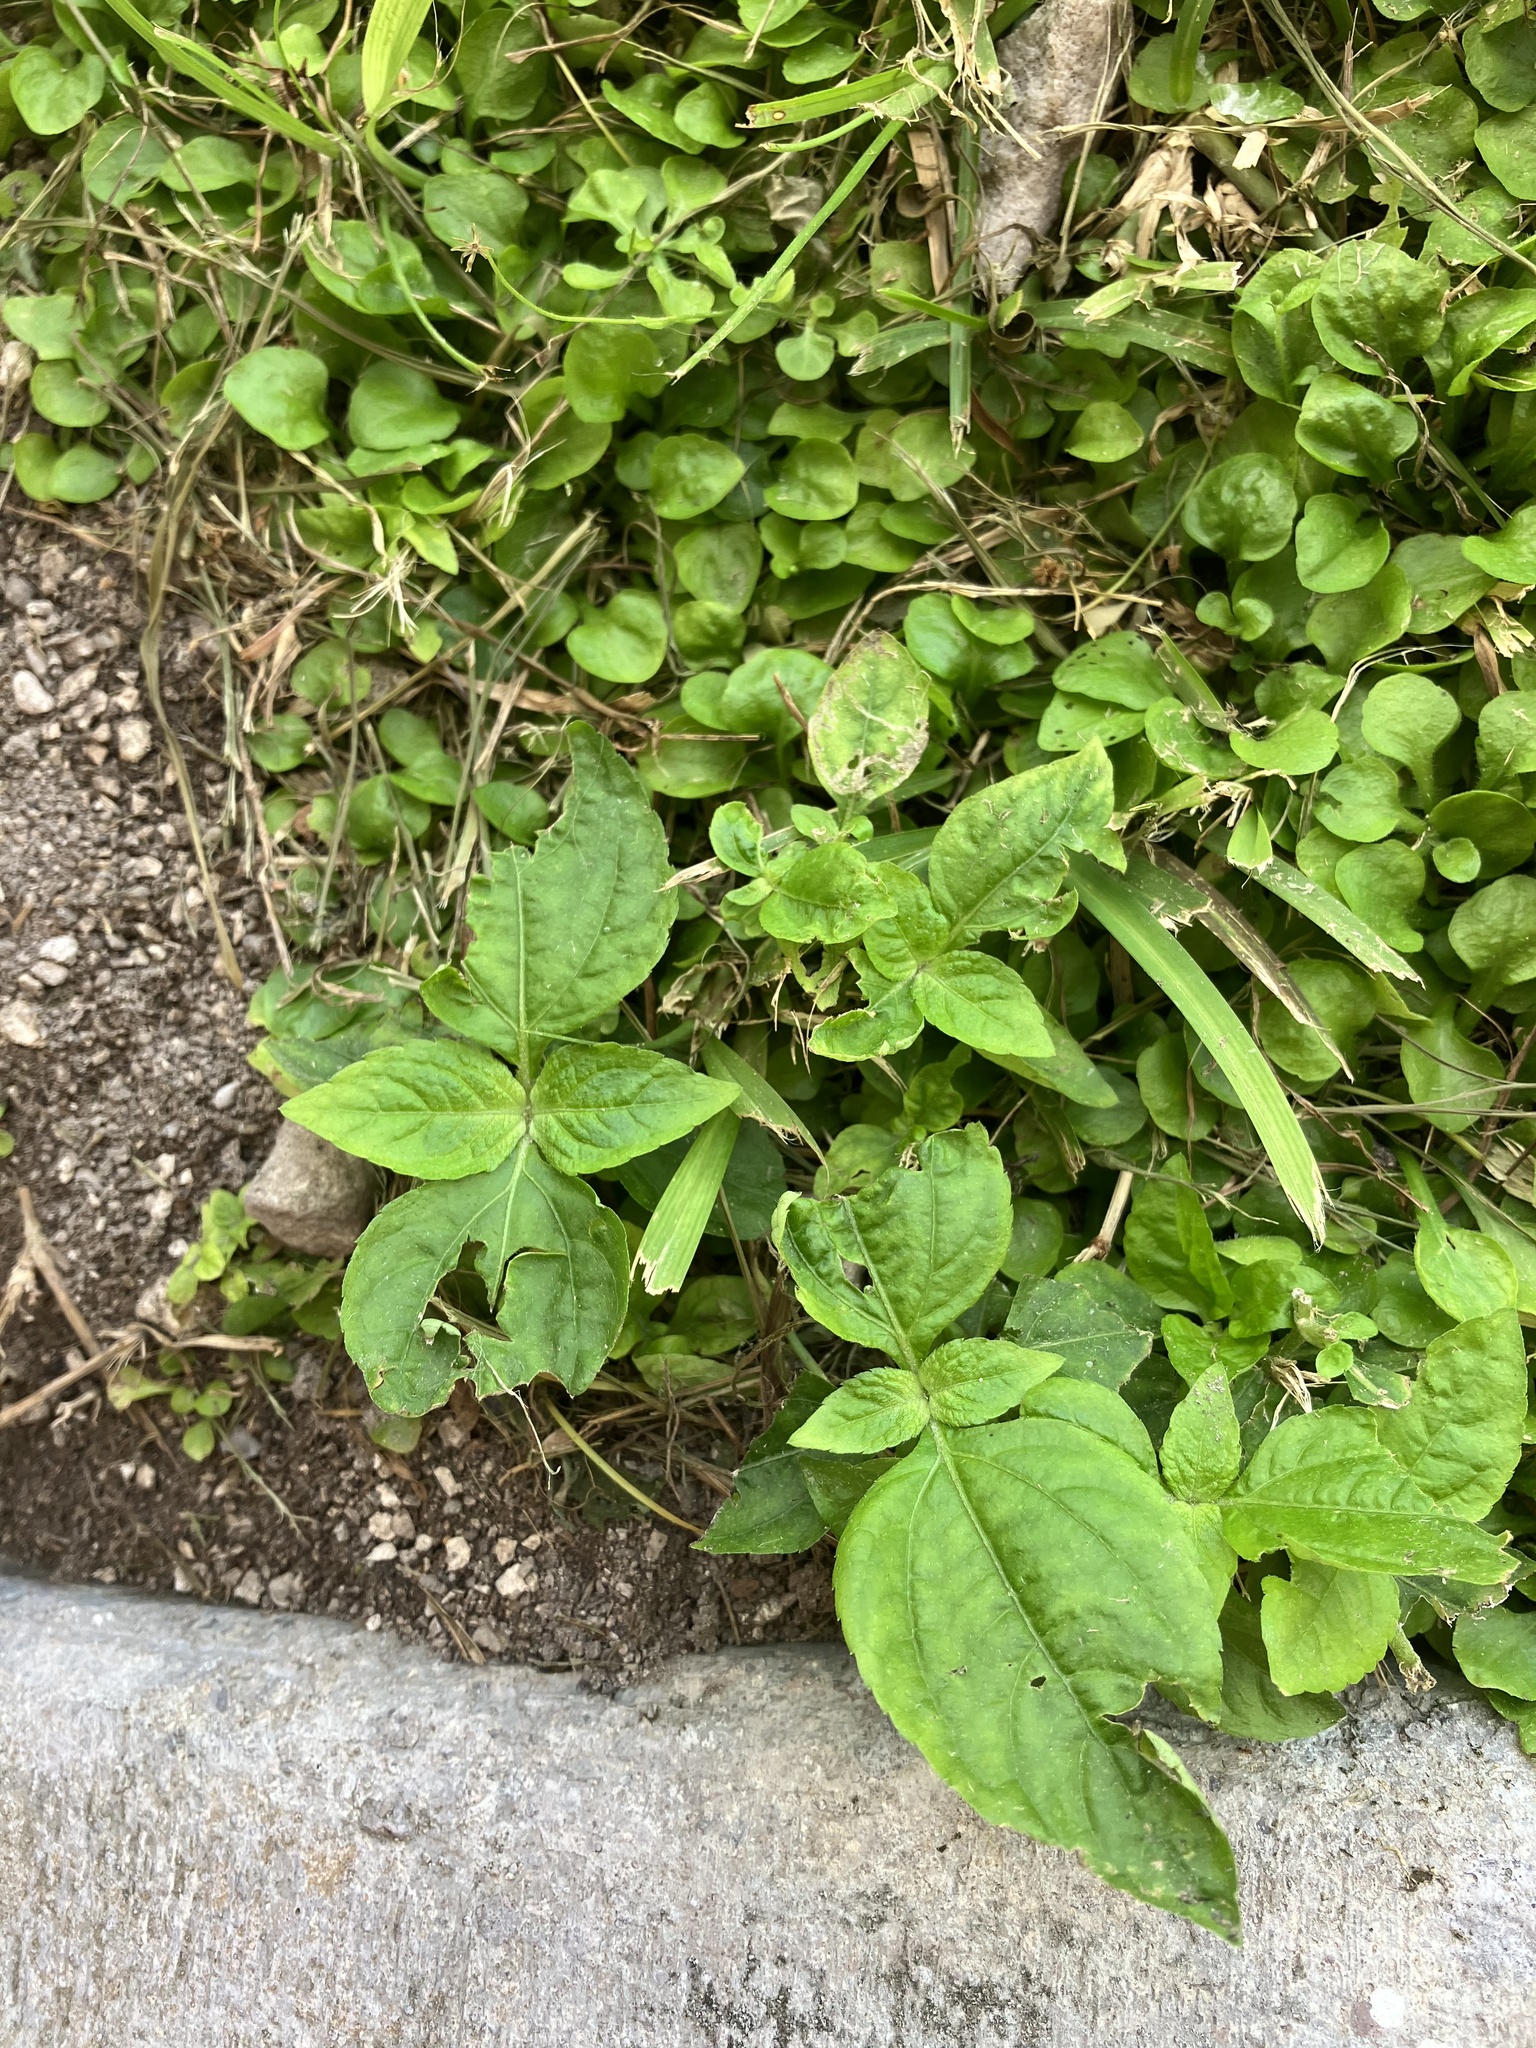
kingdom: Plantae
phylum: Tracheophyta
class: Magnoliopsida
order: Asterales
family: Asteraceae
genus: Erigeron
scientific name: Erigeron bellioides
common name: Bellorita
